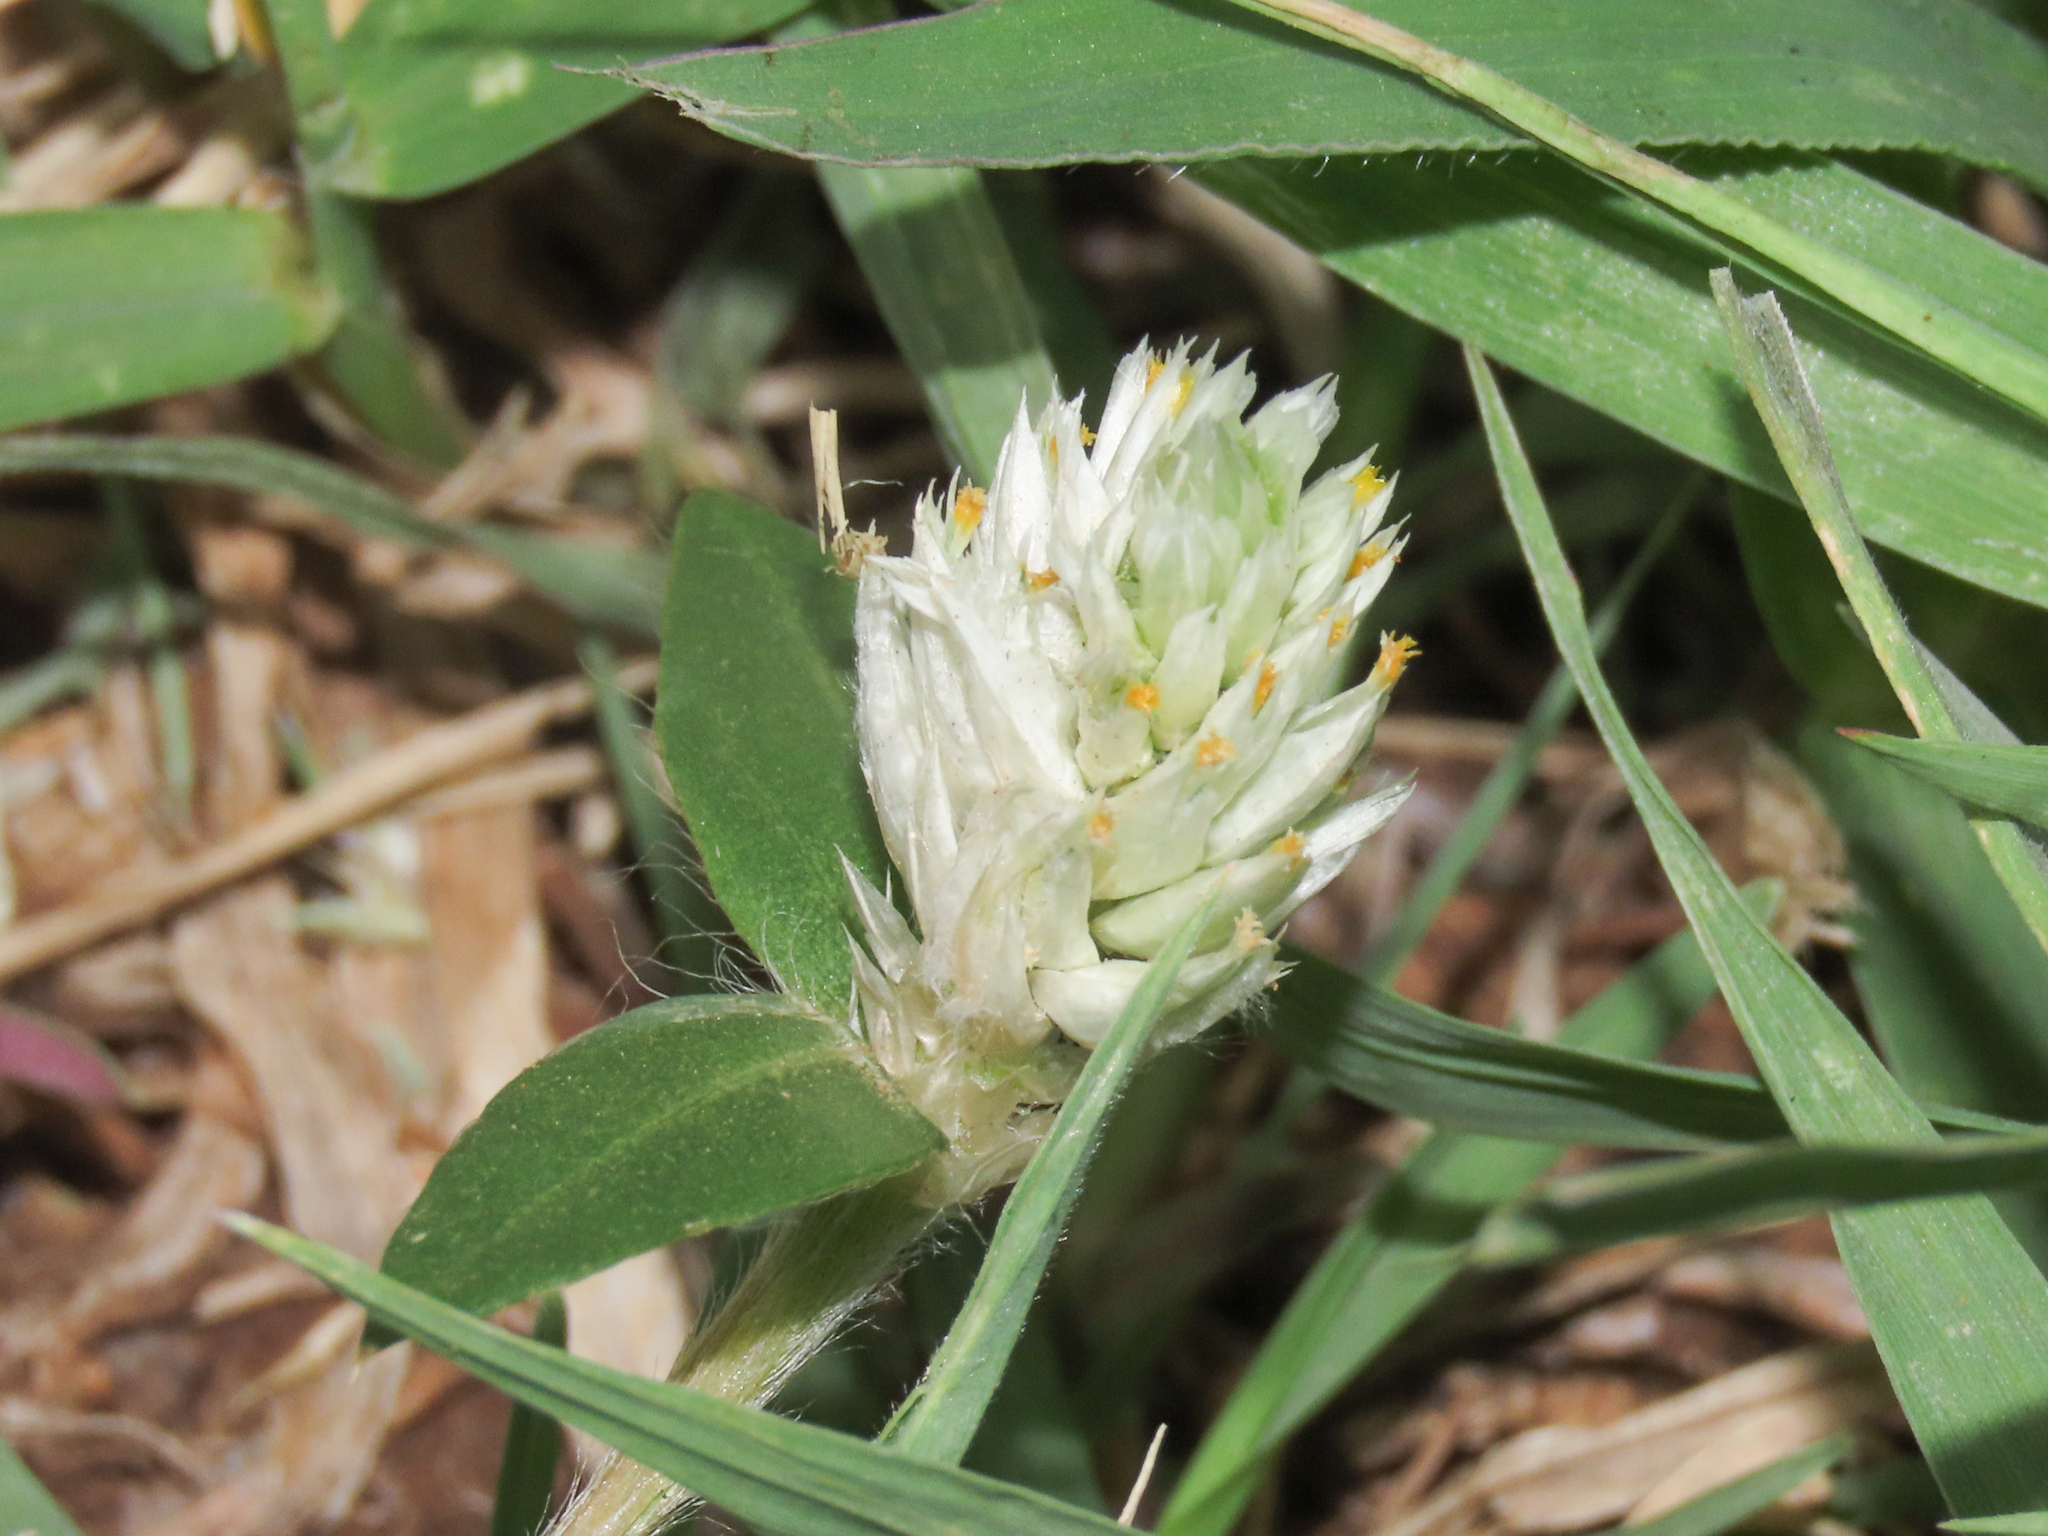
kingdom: Plantae
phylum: Tracheophyta
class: Magnoliopsida
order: Caryophyllales
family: Amaranthaceae
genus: Gomphrena
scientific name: Gomphrena celosioides
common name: Gomphrena-weed
